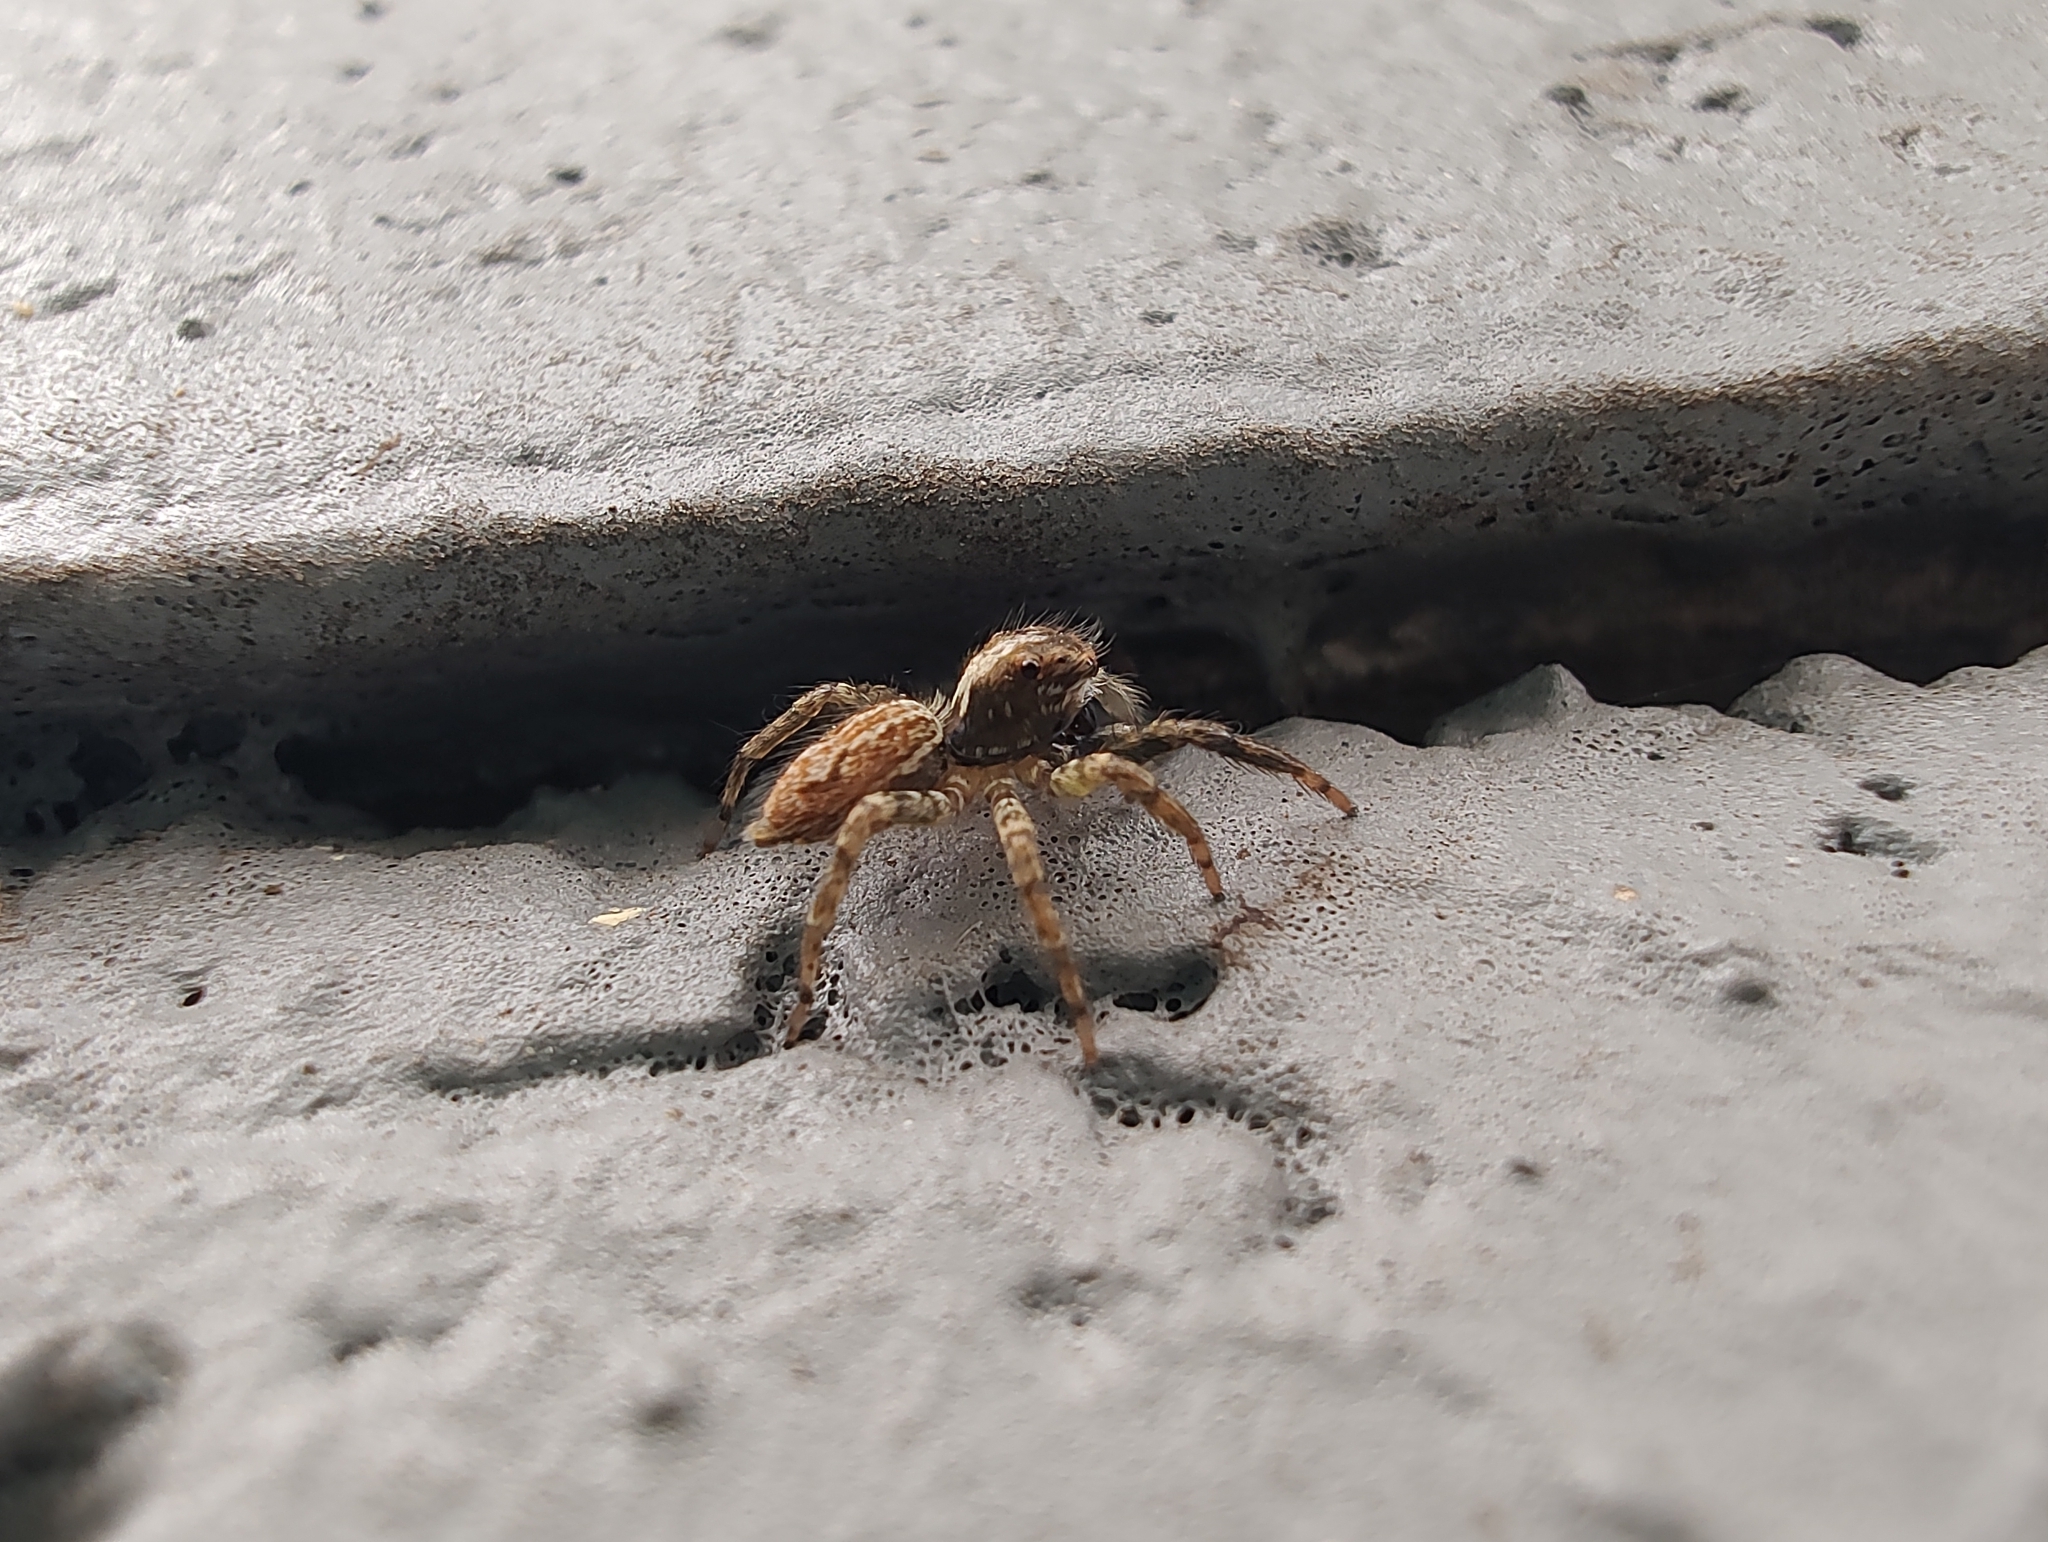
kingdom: Animalia
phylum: Arthropoda
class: Arachnida
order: Araneae
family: Salticidae
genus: Asaphobelis
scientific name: Asaphobelis physonychus
